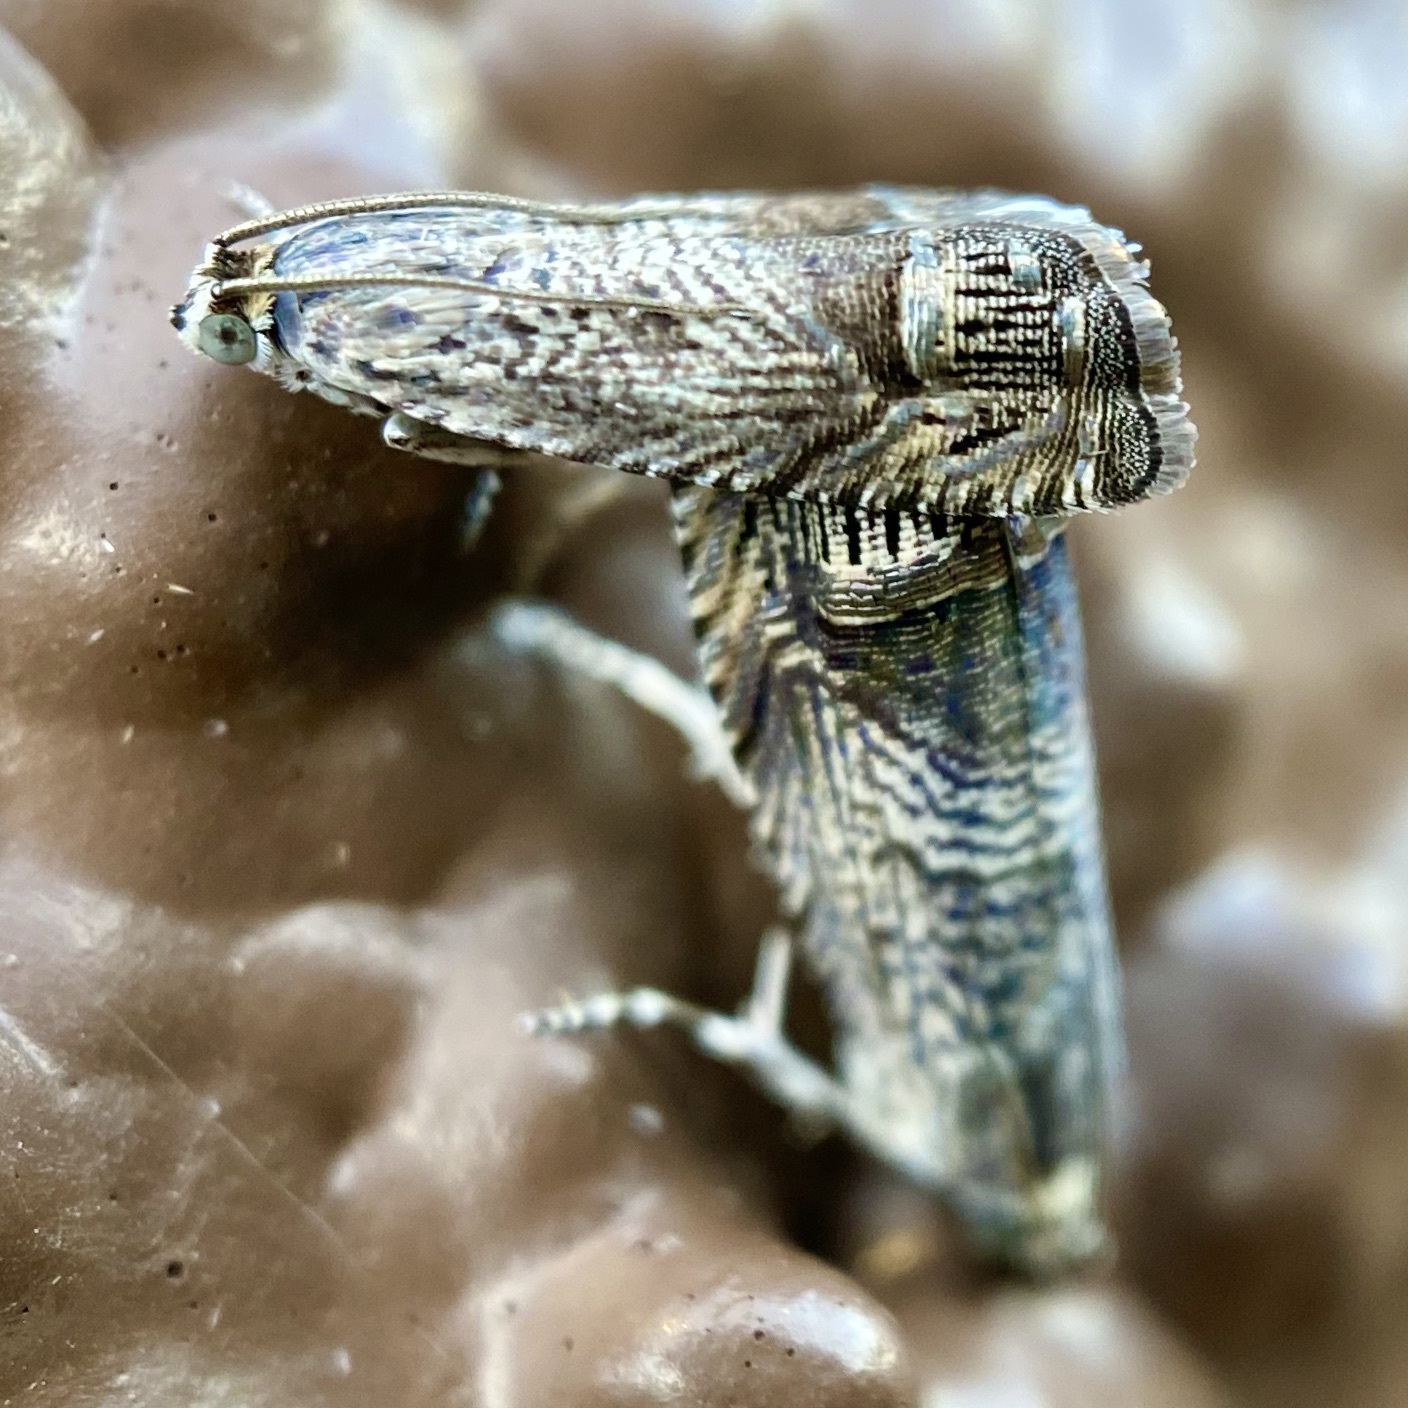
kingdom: Animalia
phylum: Arthropoda
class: Insecta
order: Lepidoptera
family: Tortricidae
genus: Ofatulena
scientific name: Ofatulena duodecemstriata
